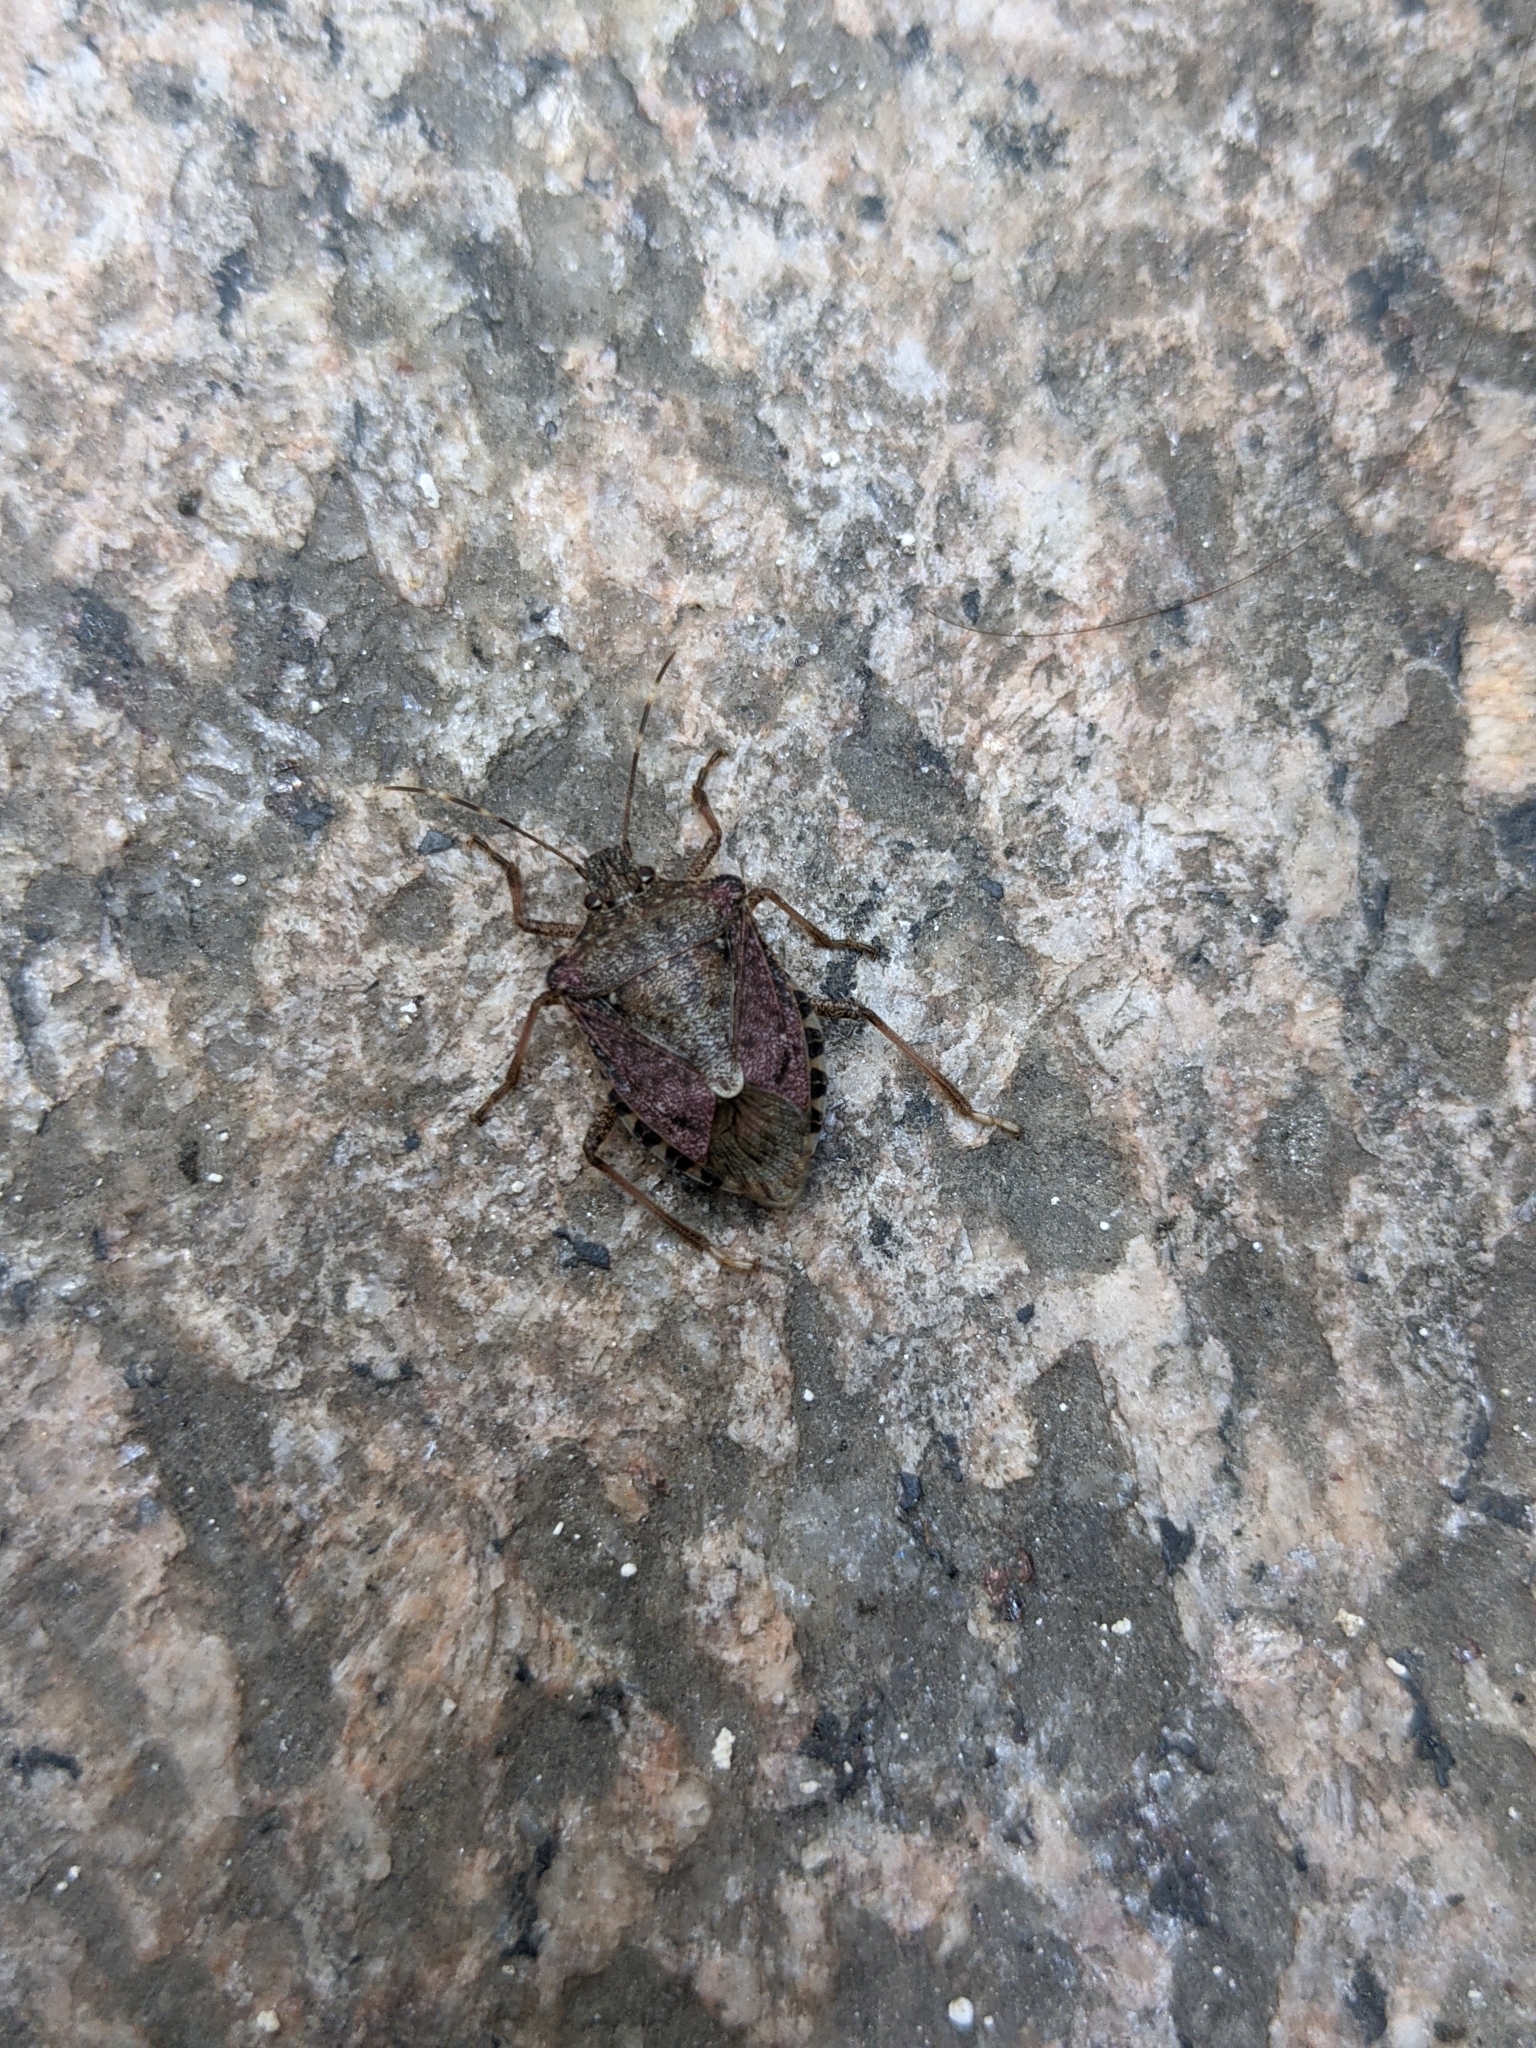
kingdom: Animalia
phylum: Arthropoda
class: Insecta
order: Hemiptera
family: Pentatomidae
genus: Halyomorpha
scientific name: Halyomorpha halys
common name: Brown marmorated stink bug
